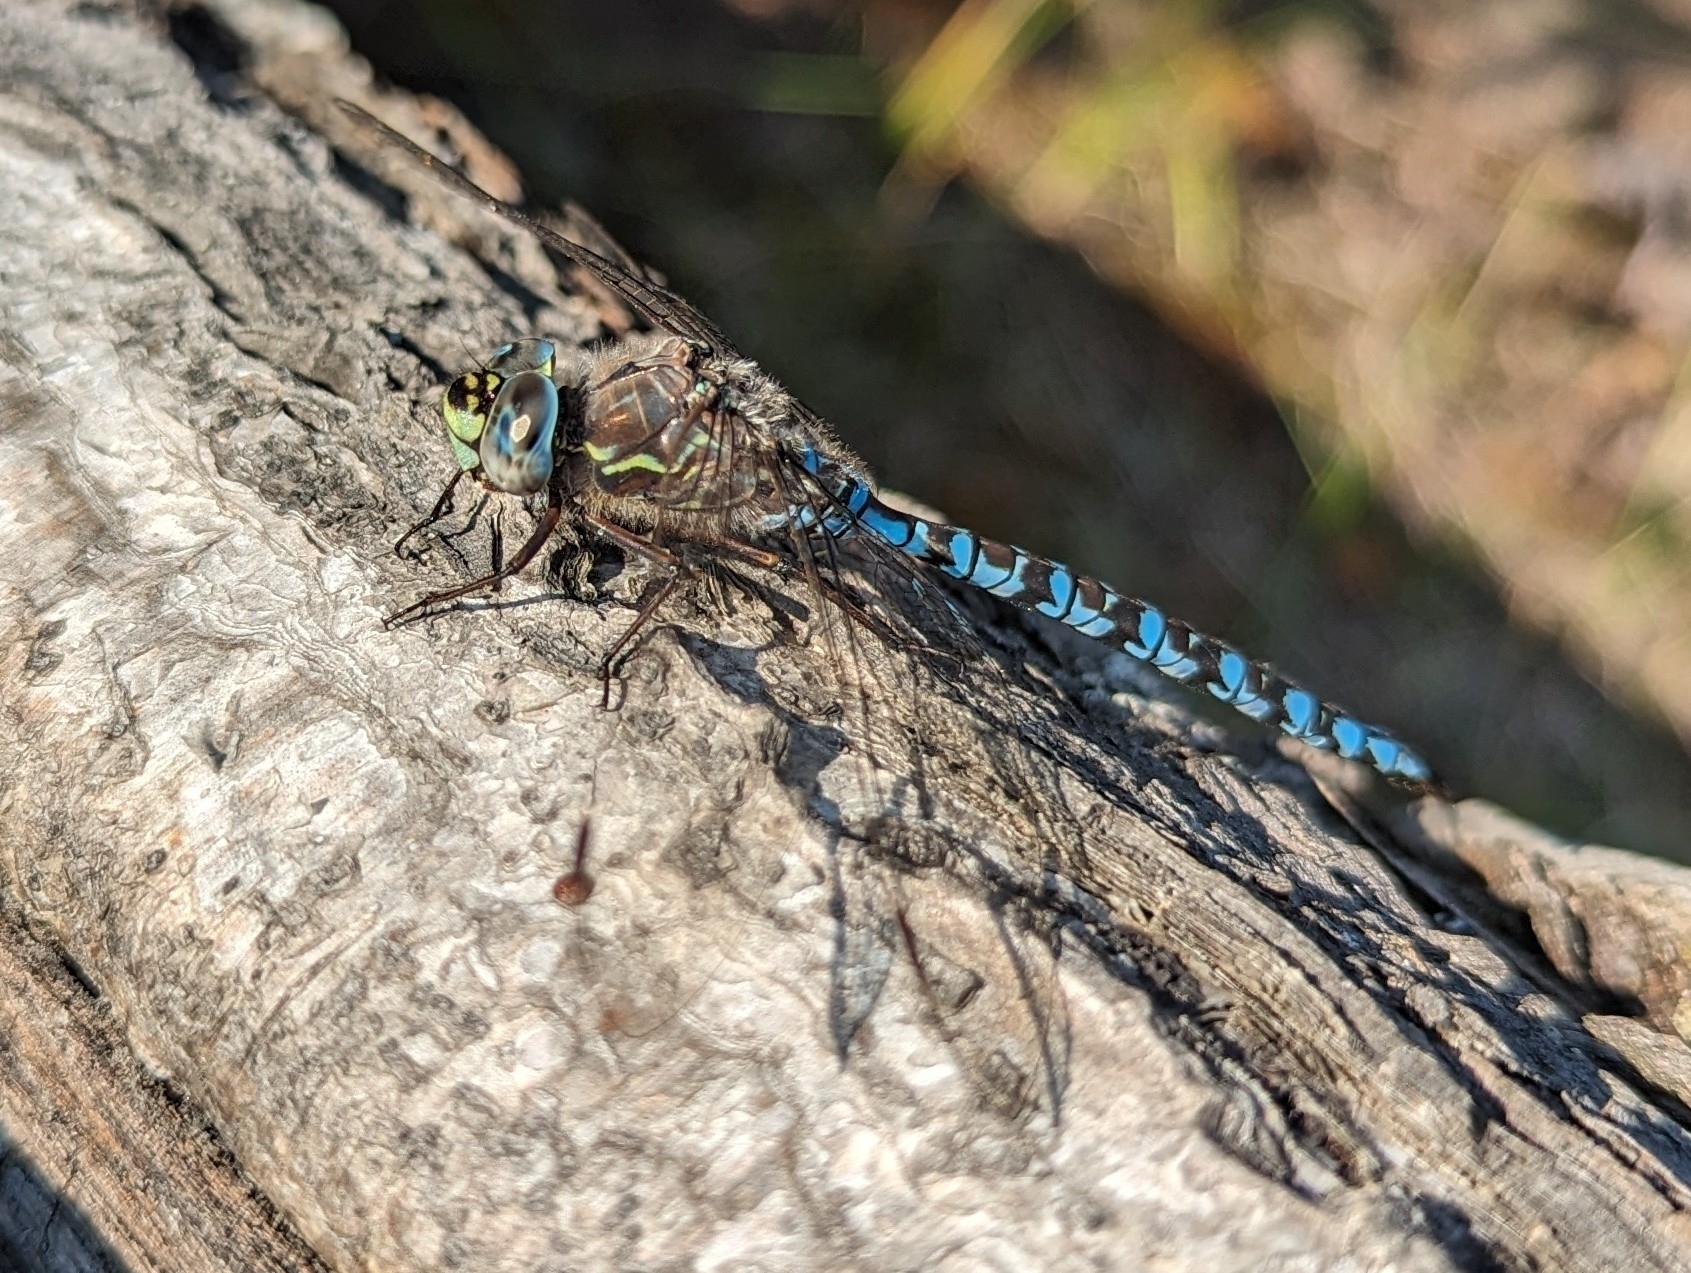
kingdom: Animalia
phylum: Arthropoda
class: Insecta
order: Odonata
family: Aeshnidae
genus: Aeshna
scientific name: Aeshna sitchensis
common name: Zigzag darner
